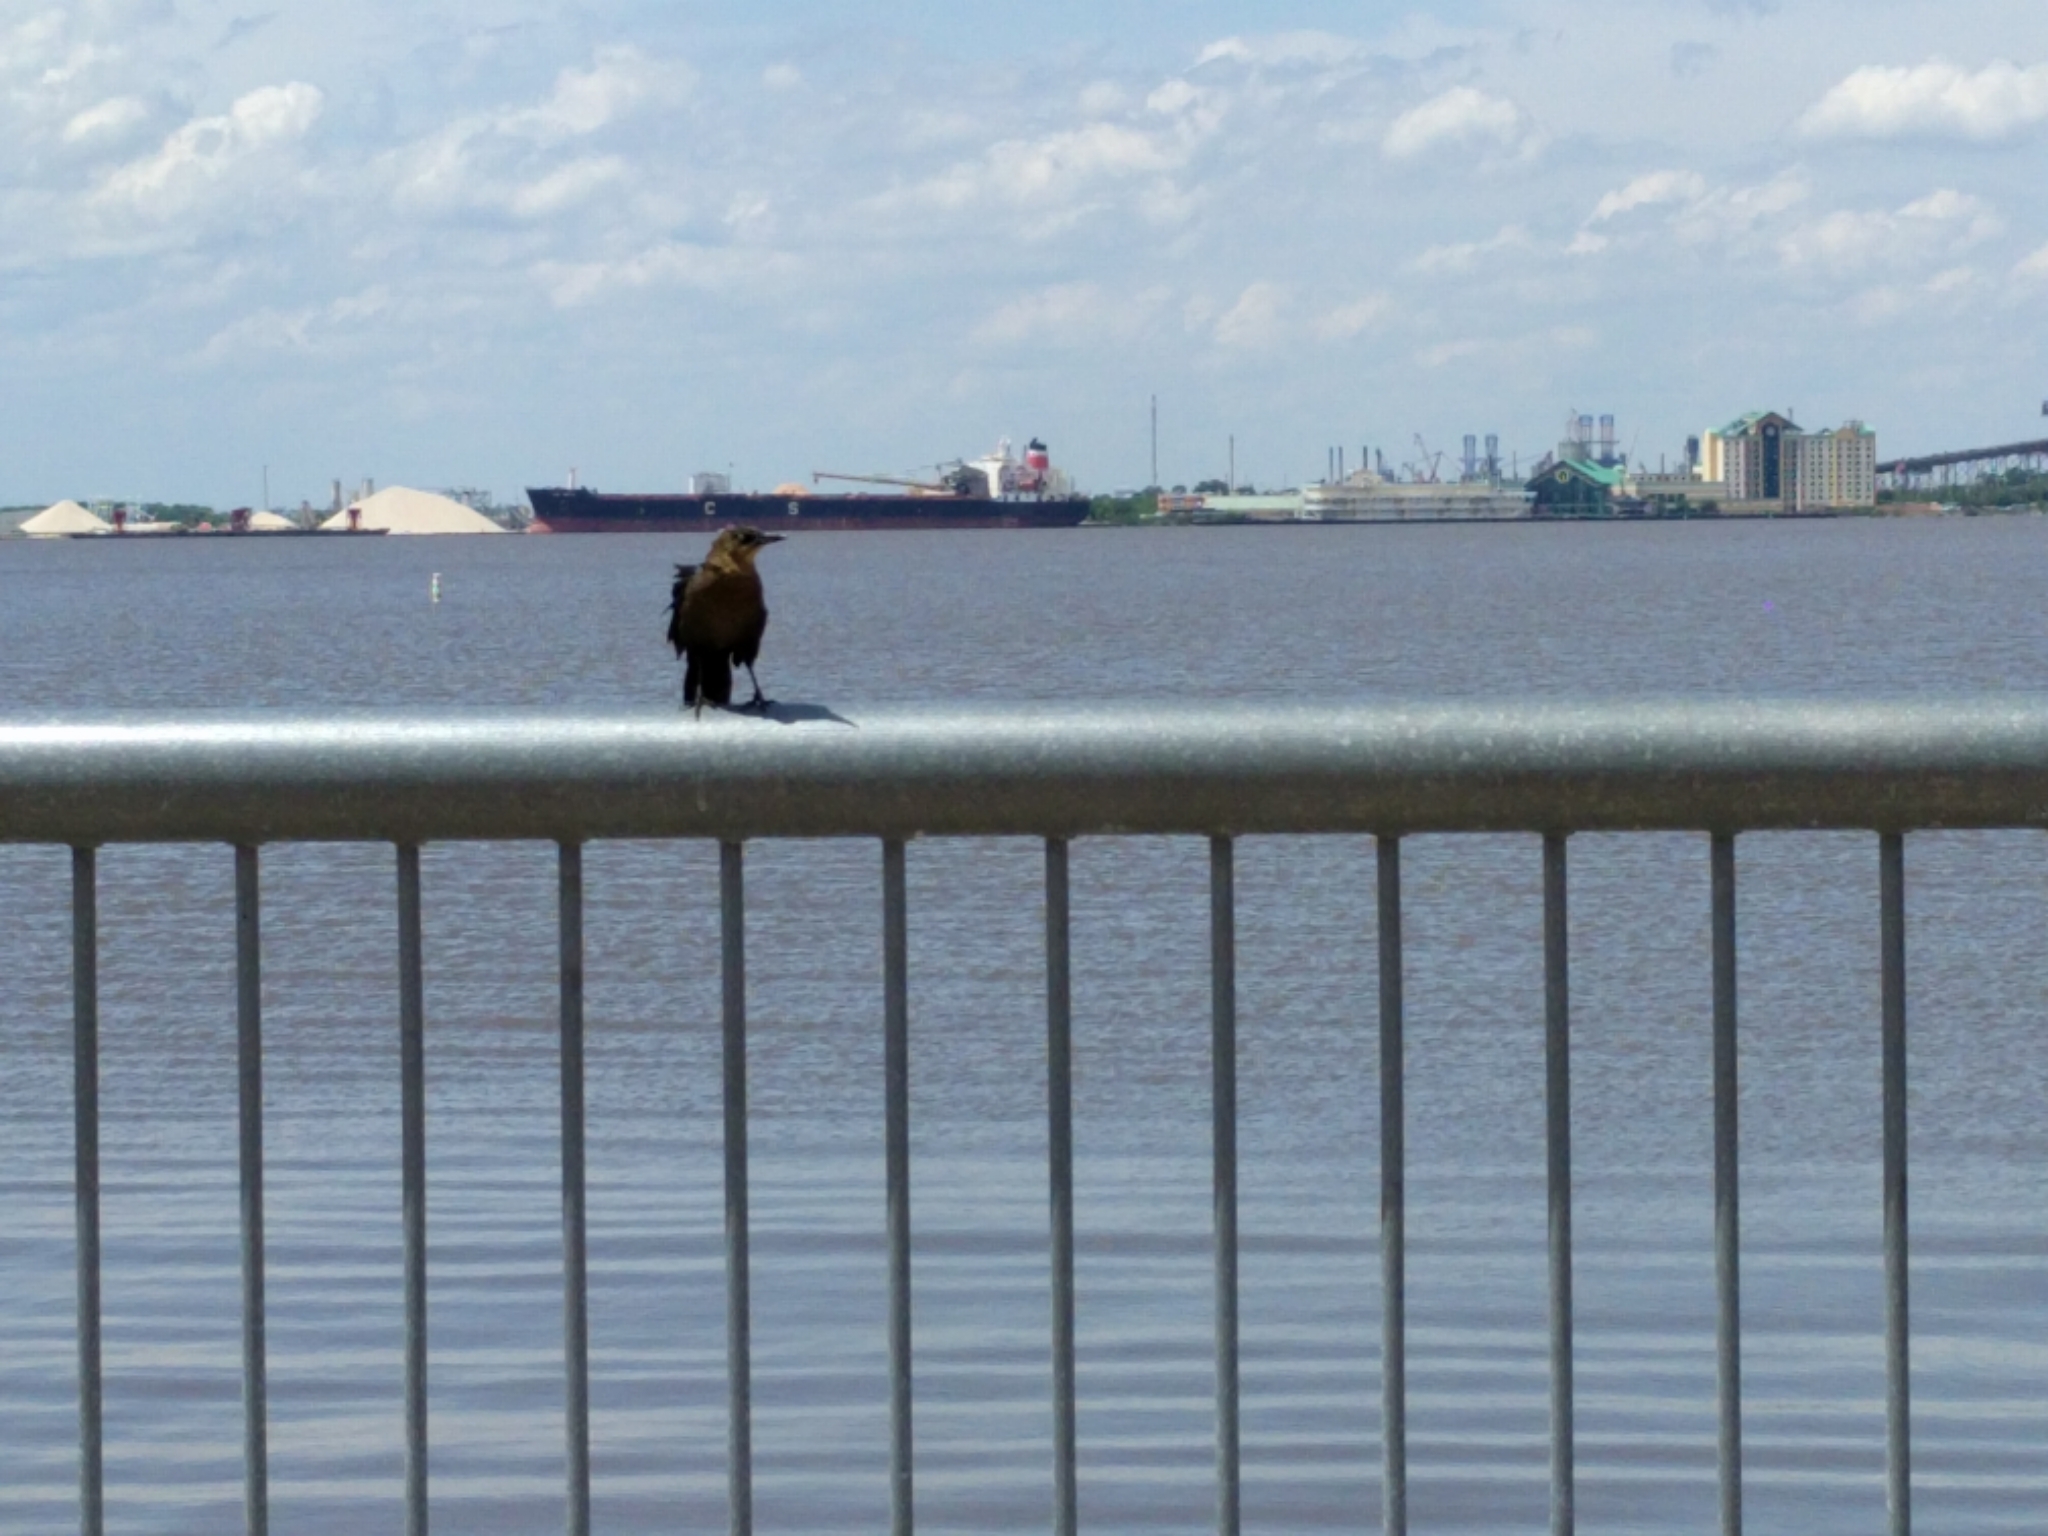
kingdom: Animalia
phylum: Chordata
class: Aves
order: Passeriformes
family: Icteridae
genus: Quiscalus
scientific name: Quiscalus
